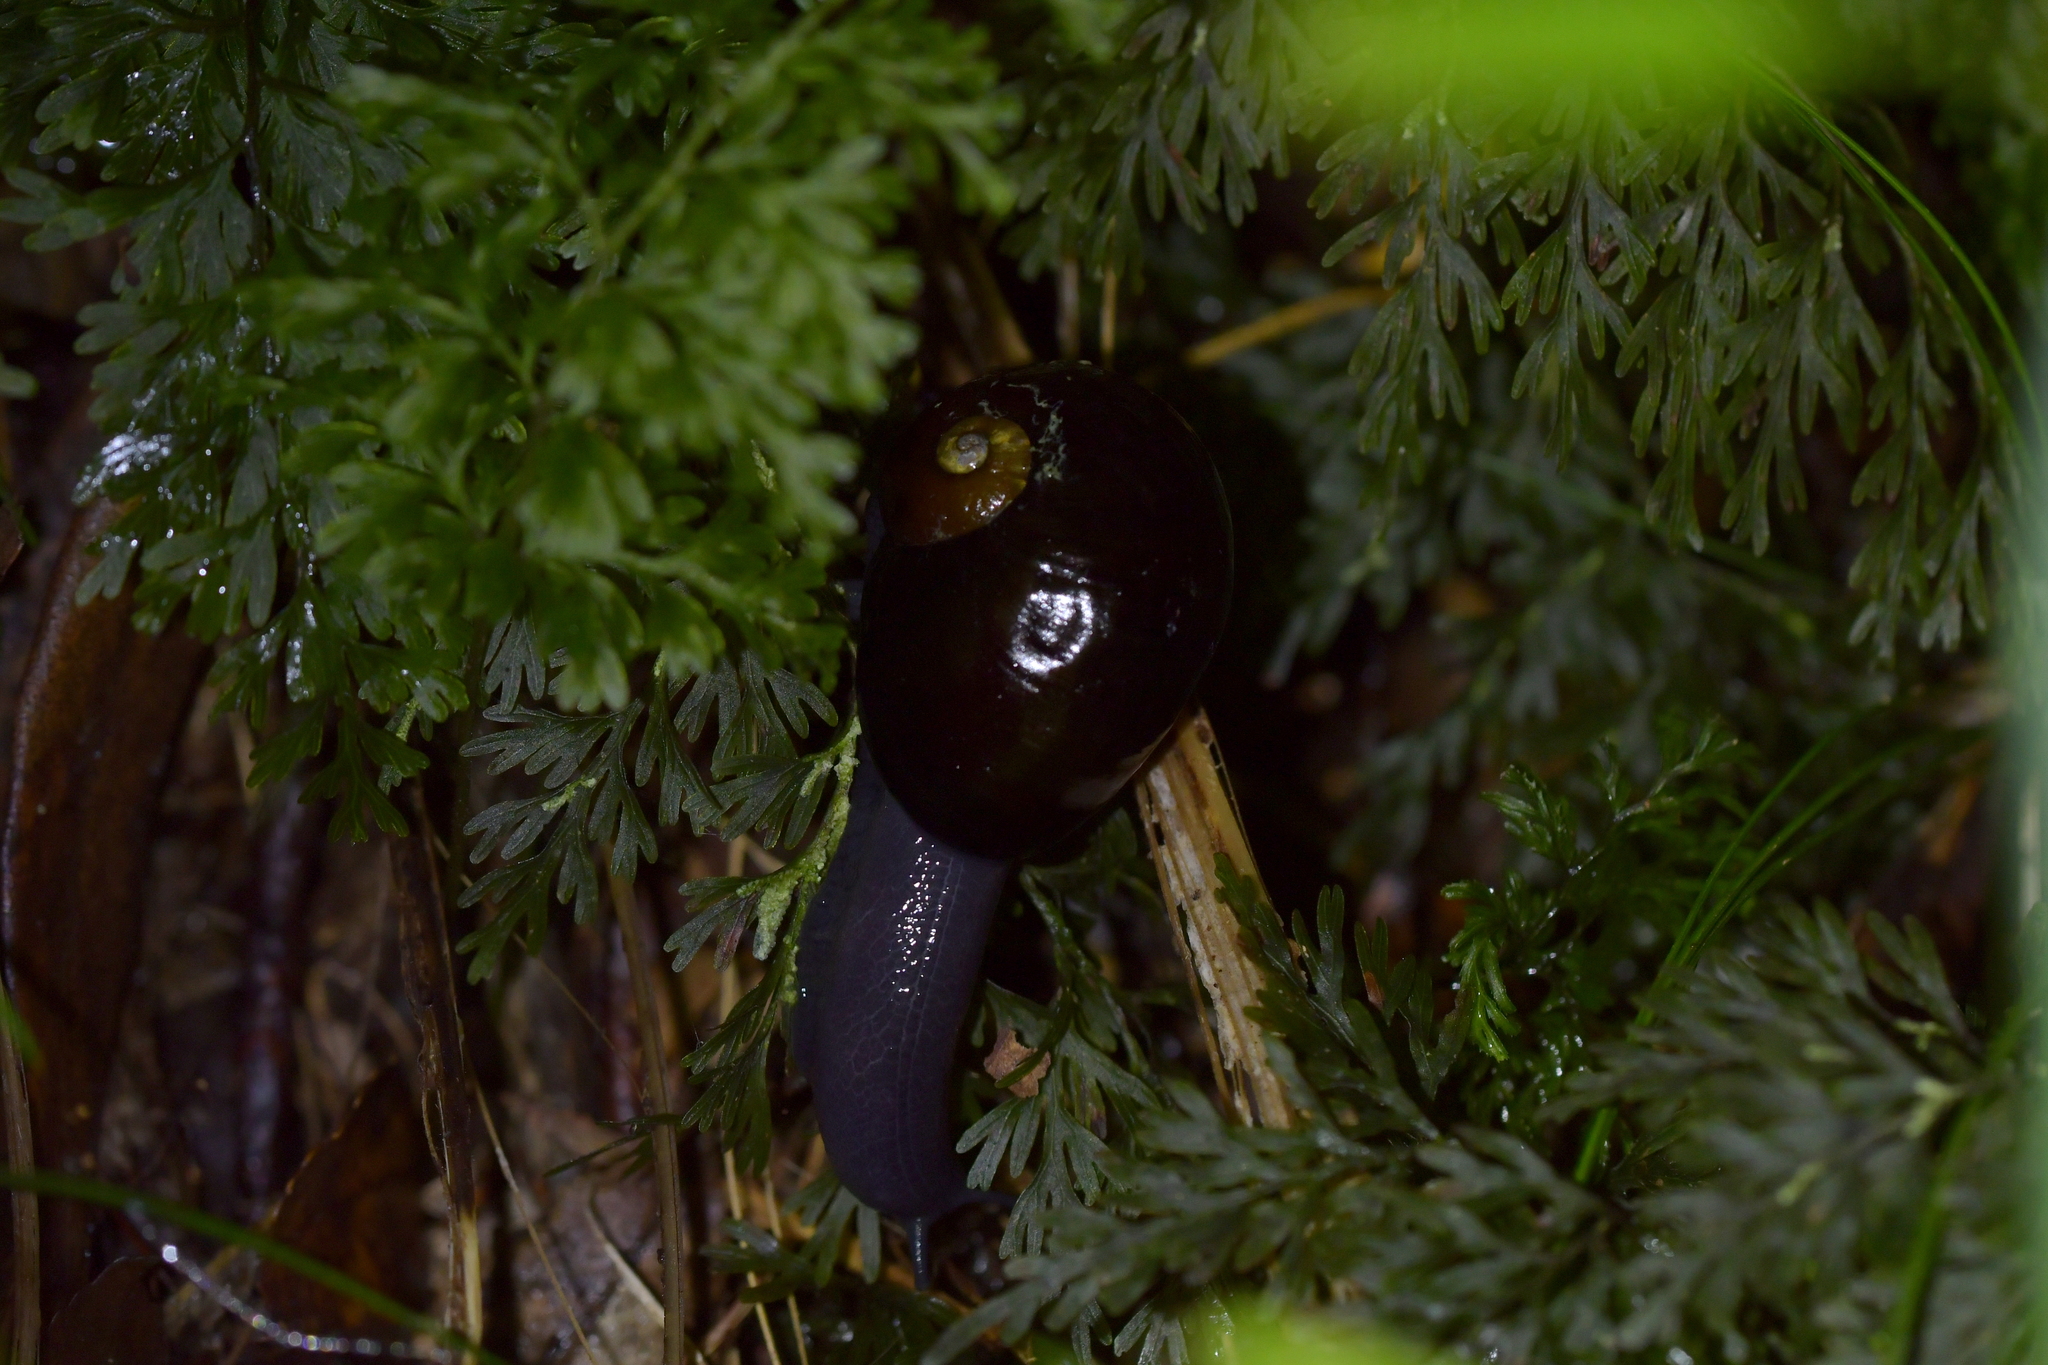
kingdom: Animalia
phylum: Mollusca
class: Gastropoda
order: Stylommatophora
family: Rhytididae
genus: Wainuia
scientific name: Wainuia urnula
